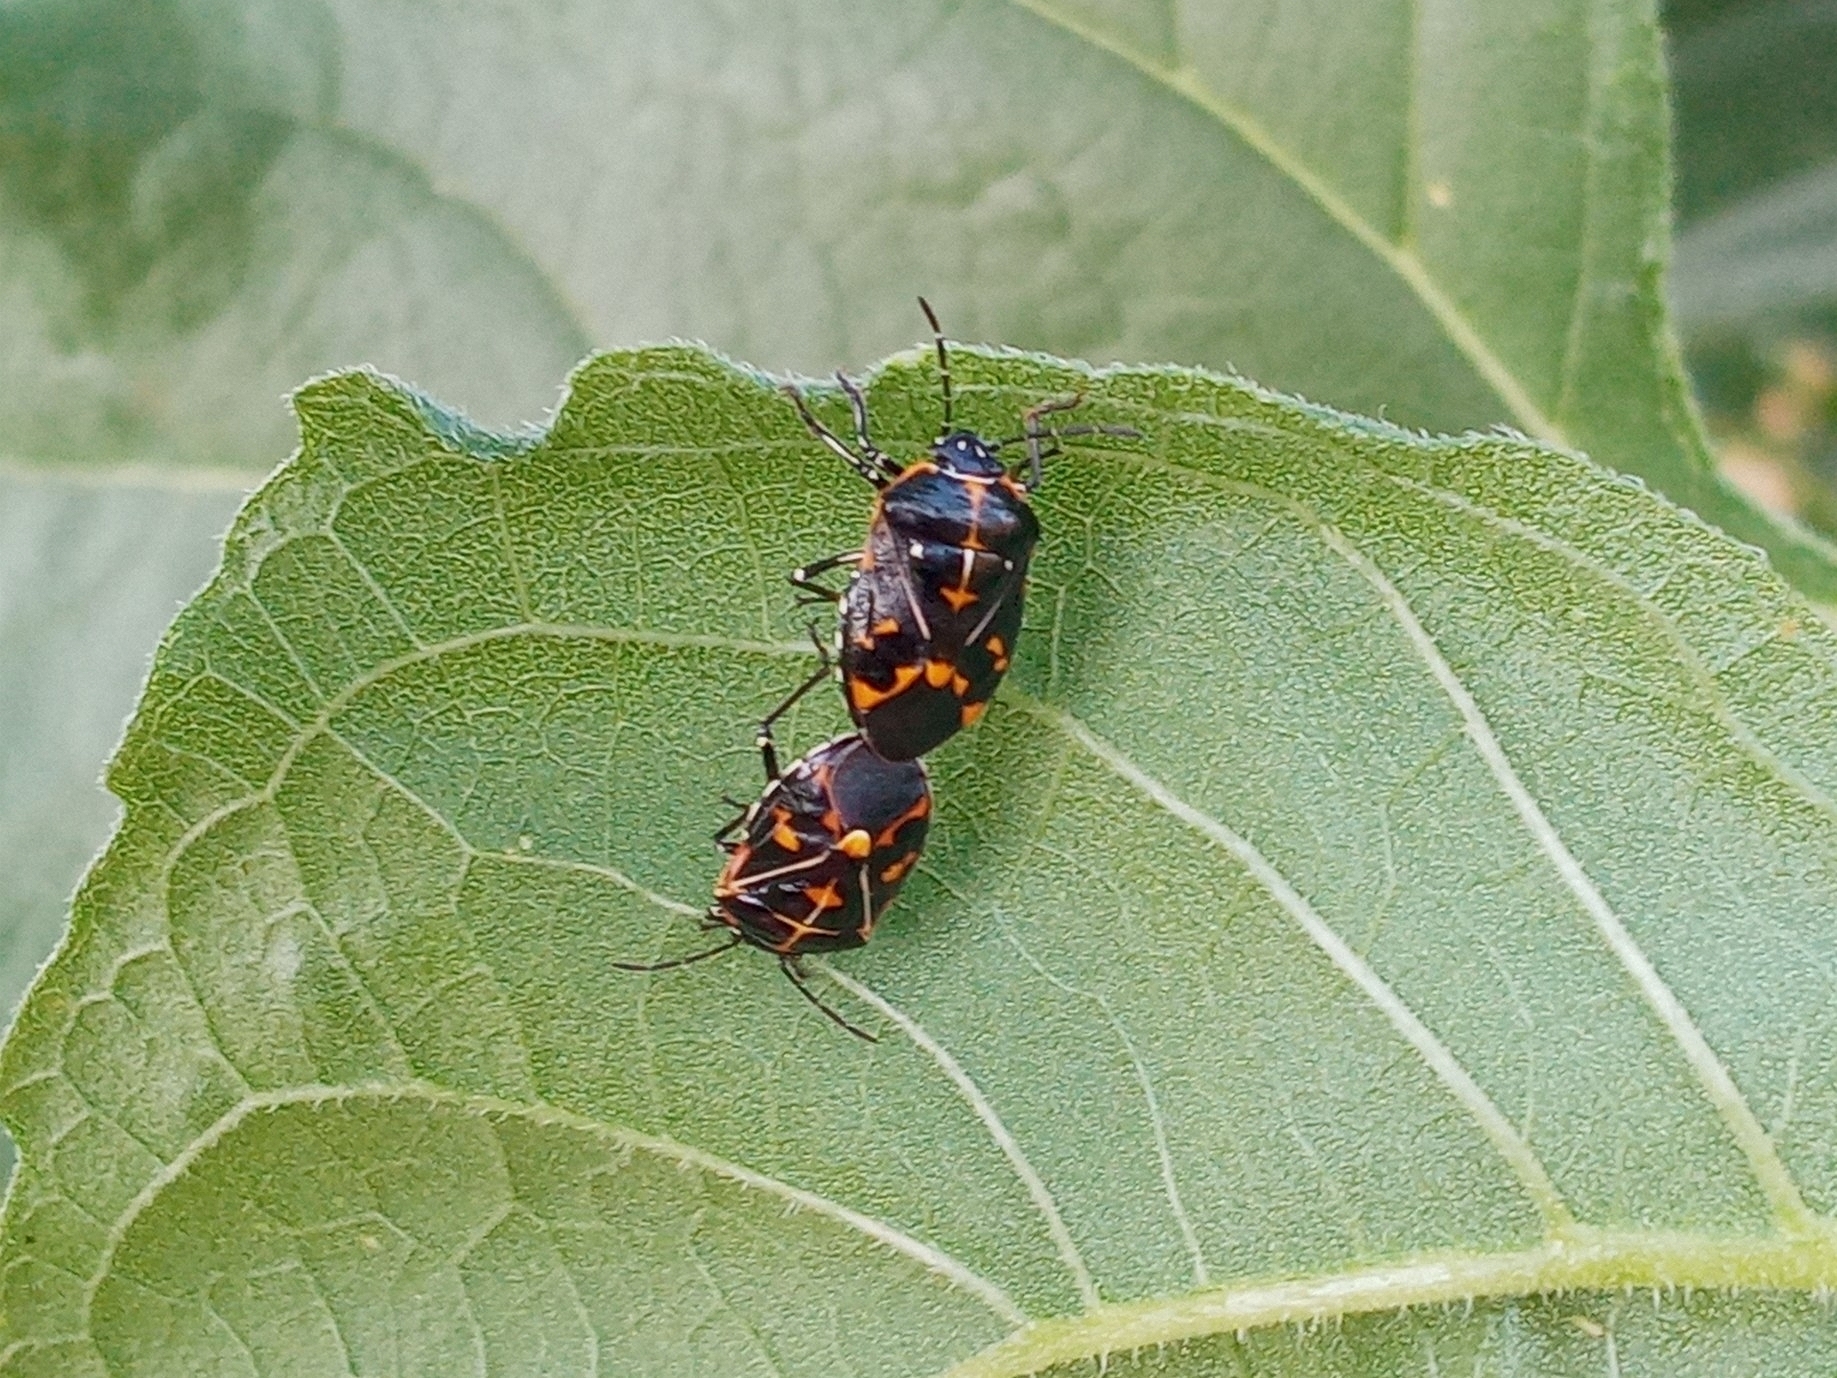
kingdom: Animalia
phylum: Arthropoda
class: Insecta
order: Hemiptera
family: Pentatomidae
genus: Murgantia
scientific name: Murgantia histrionica
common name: Harlequin bug
